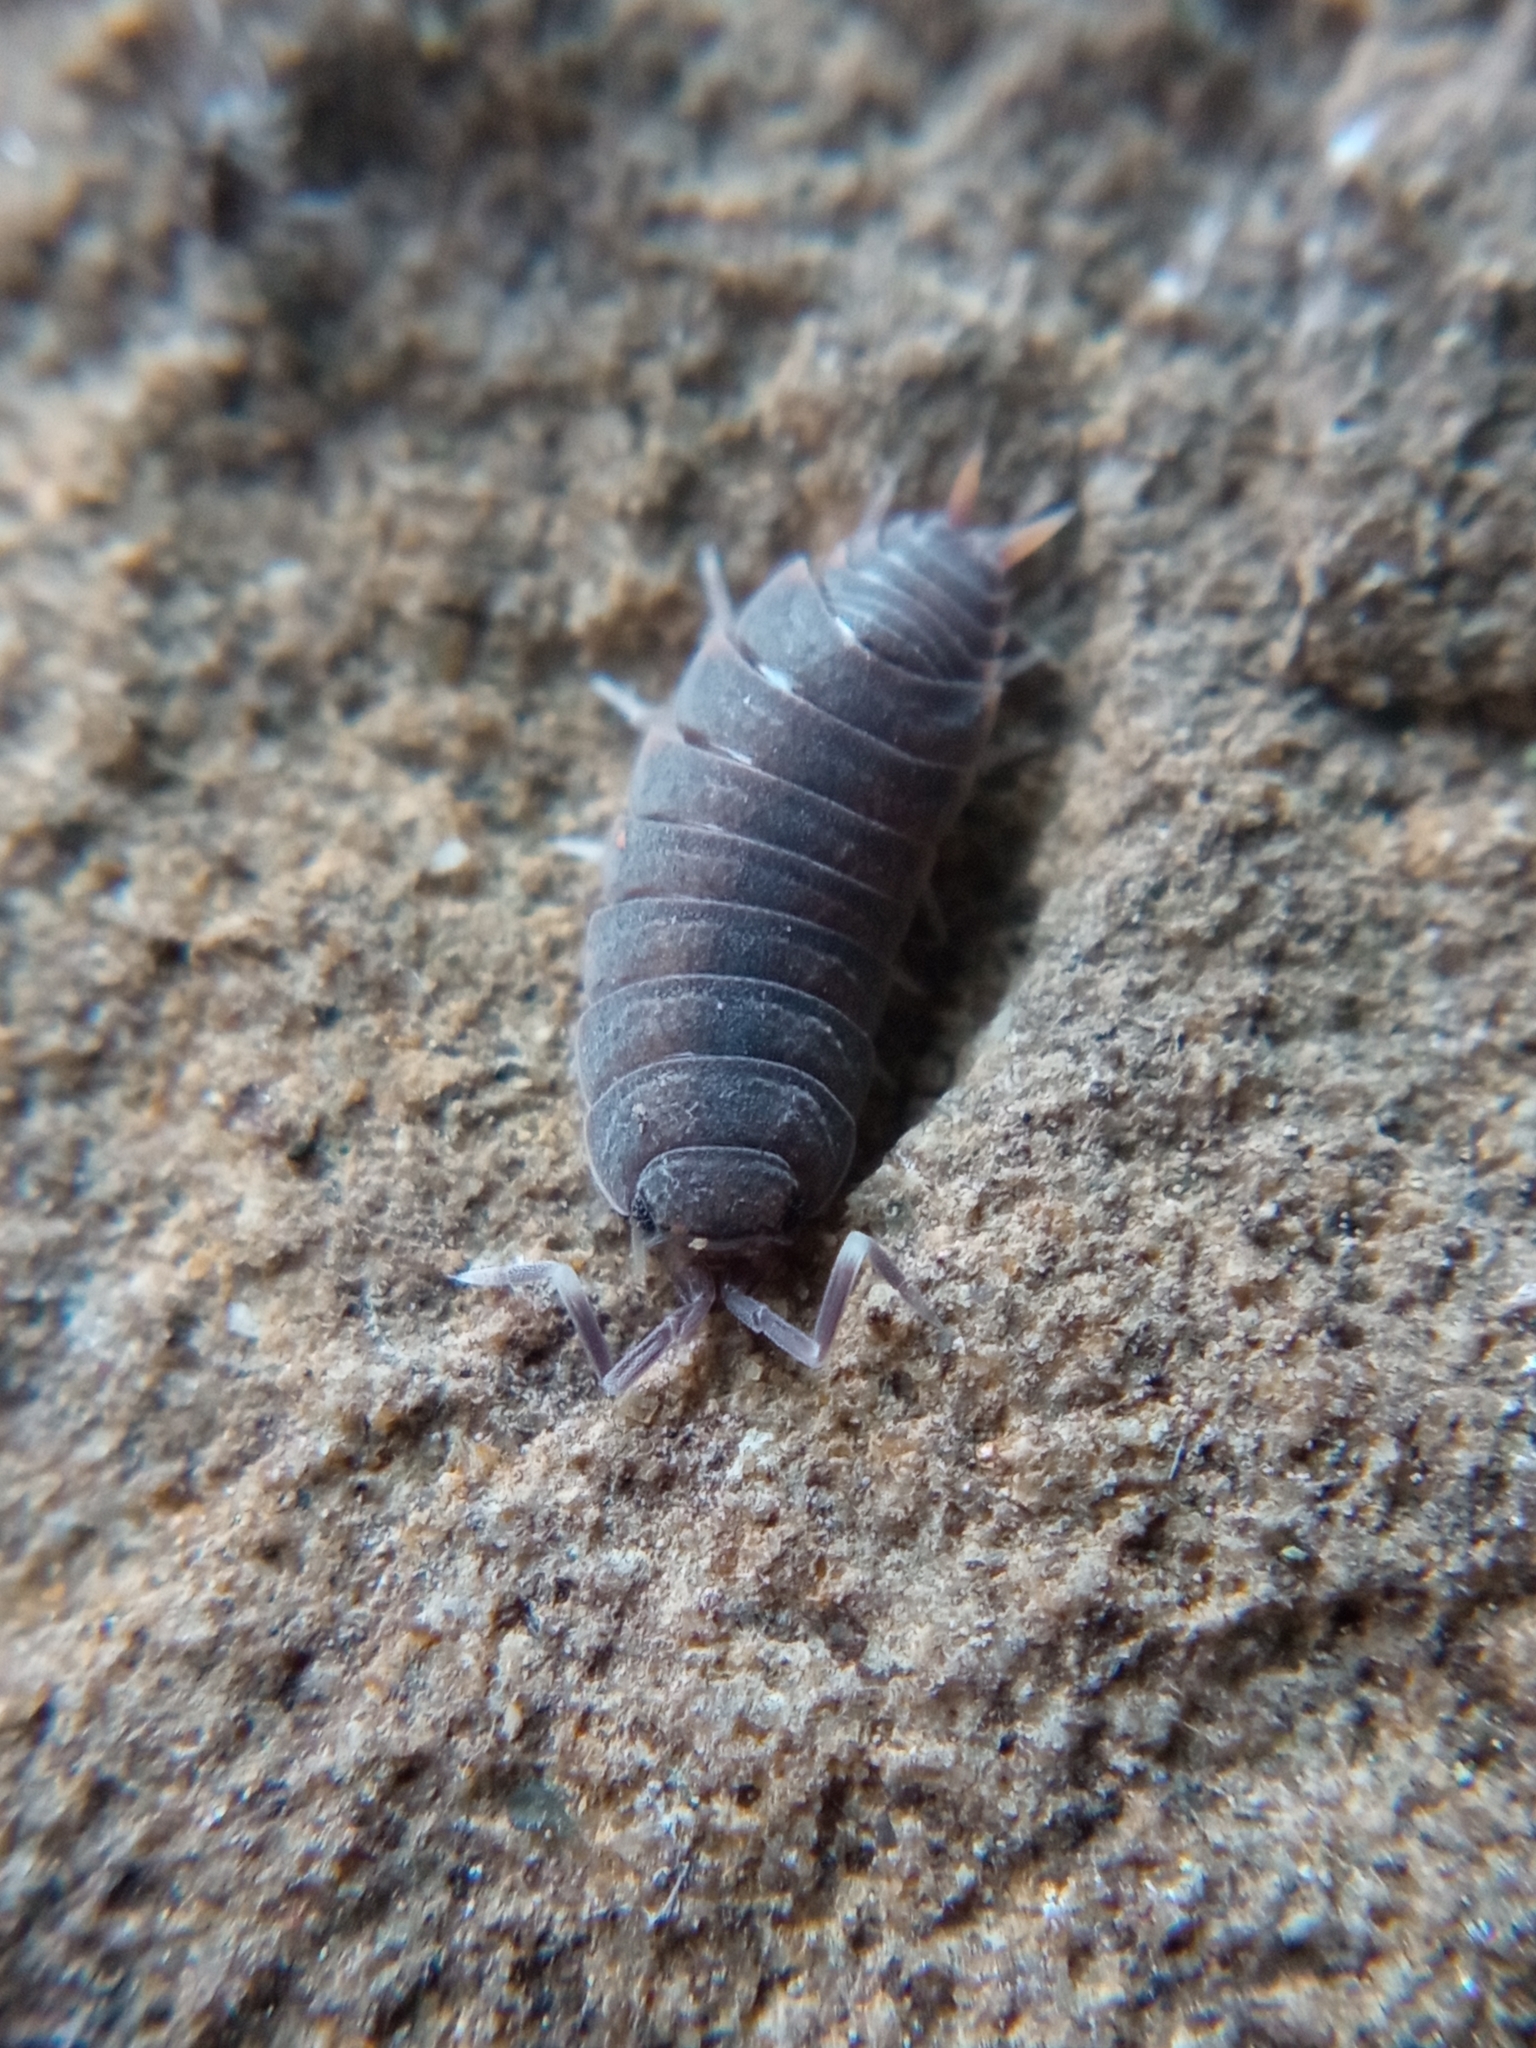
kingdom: Animalia
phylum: Arthropoda
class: Malacostraca
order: Isopoda
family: Porcellionidae
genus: Porcellionides
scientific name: Porcellionides pruinosus
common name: Plum woodlouse
